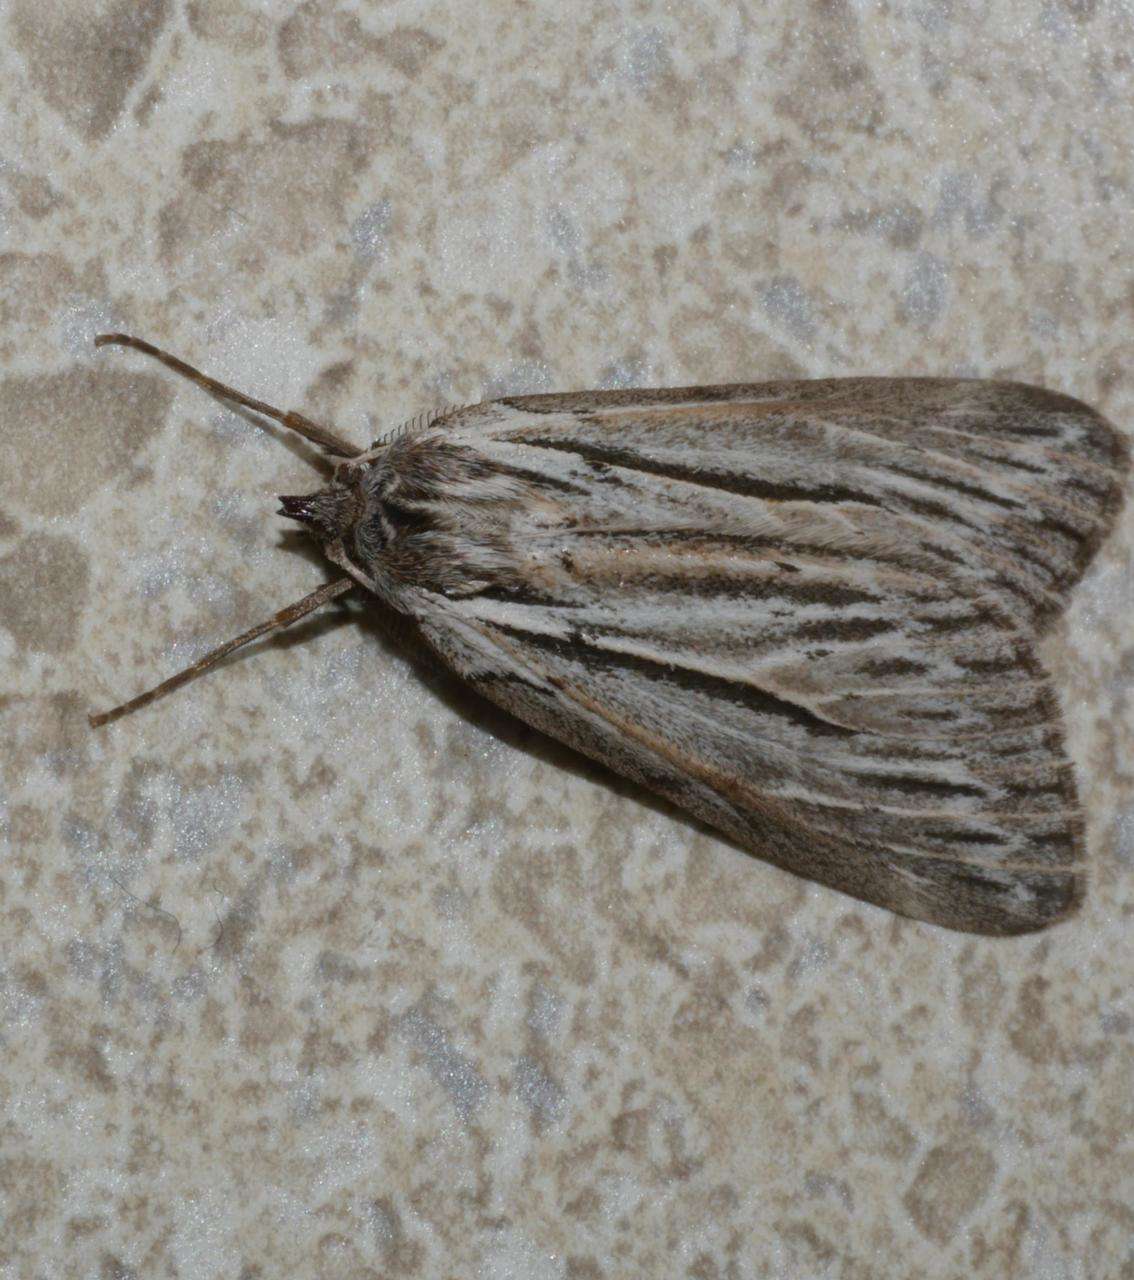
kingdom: Animalia
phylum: Arthropoda
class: Insecta
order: Lepidoptera
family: Geometridae
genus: Ciampa
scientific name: Ciampa arietaria
